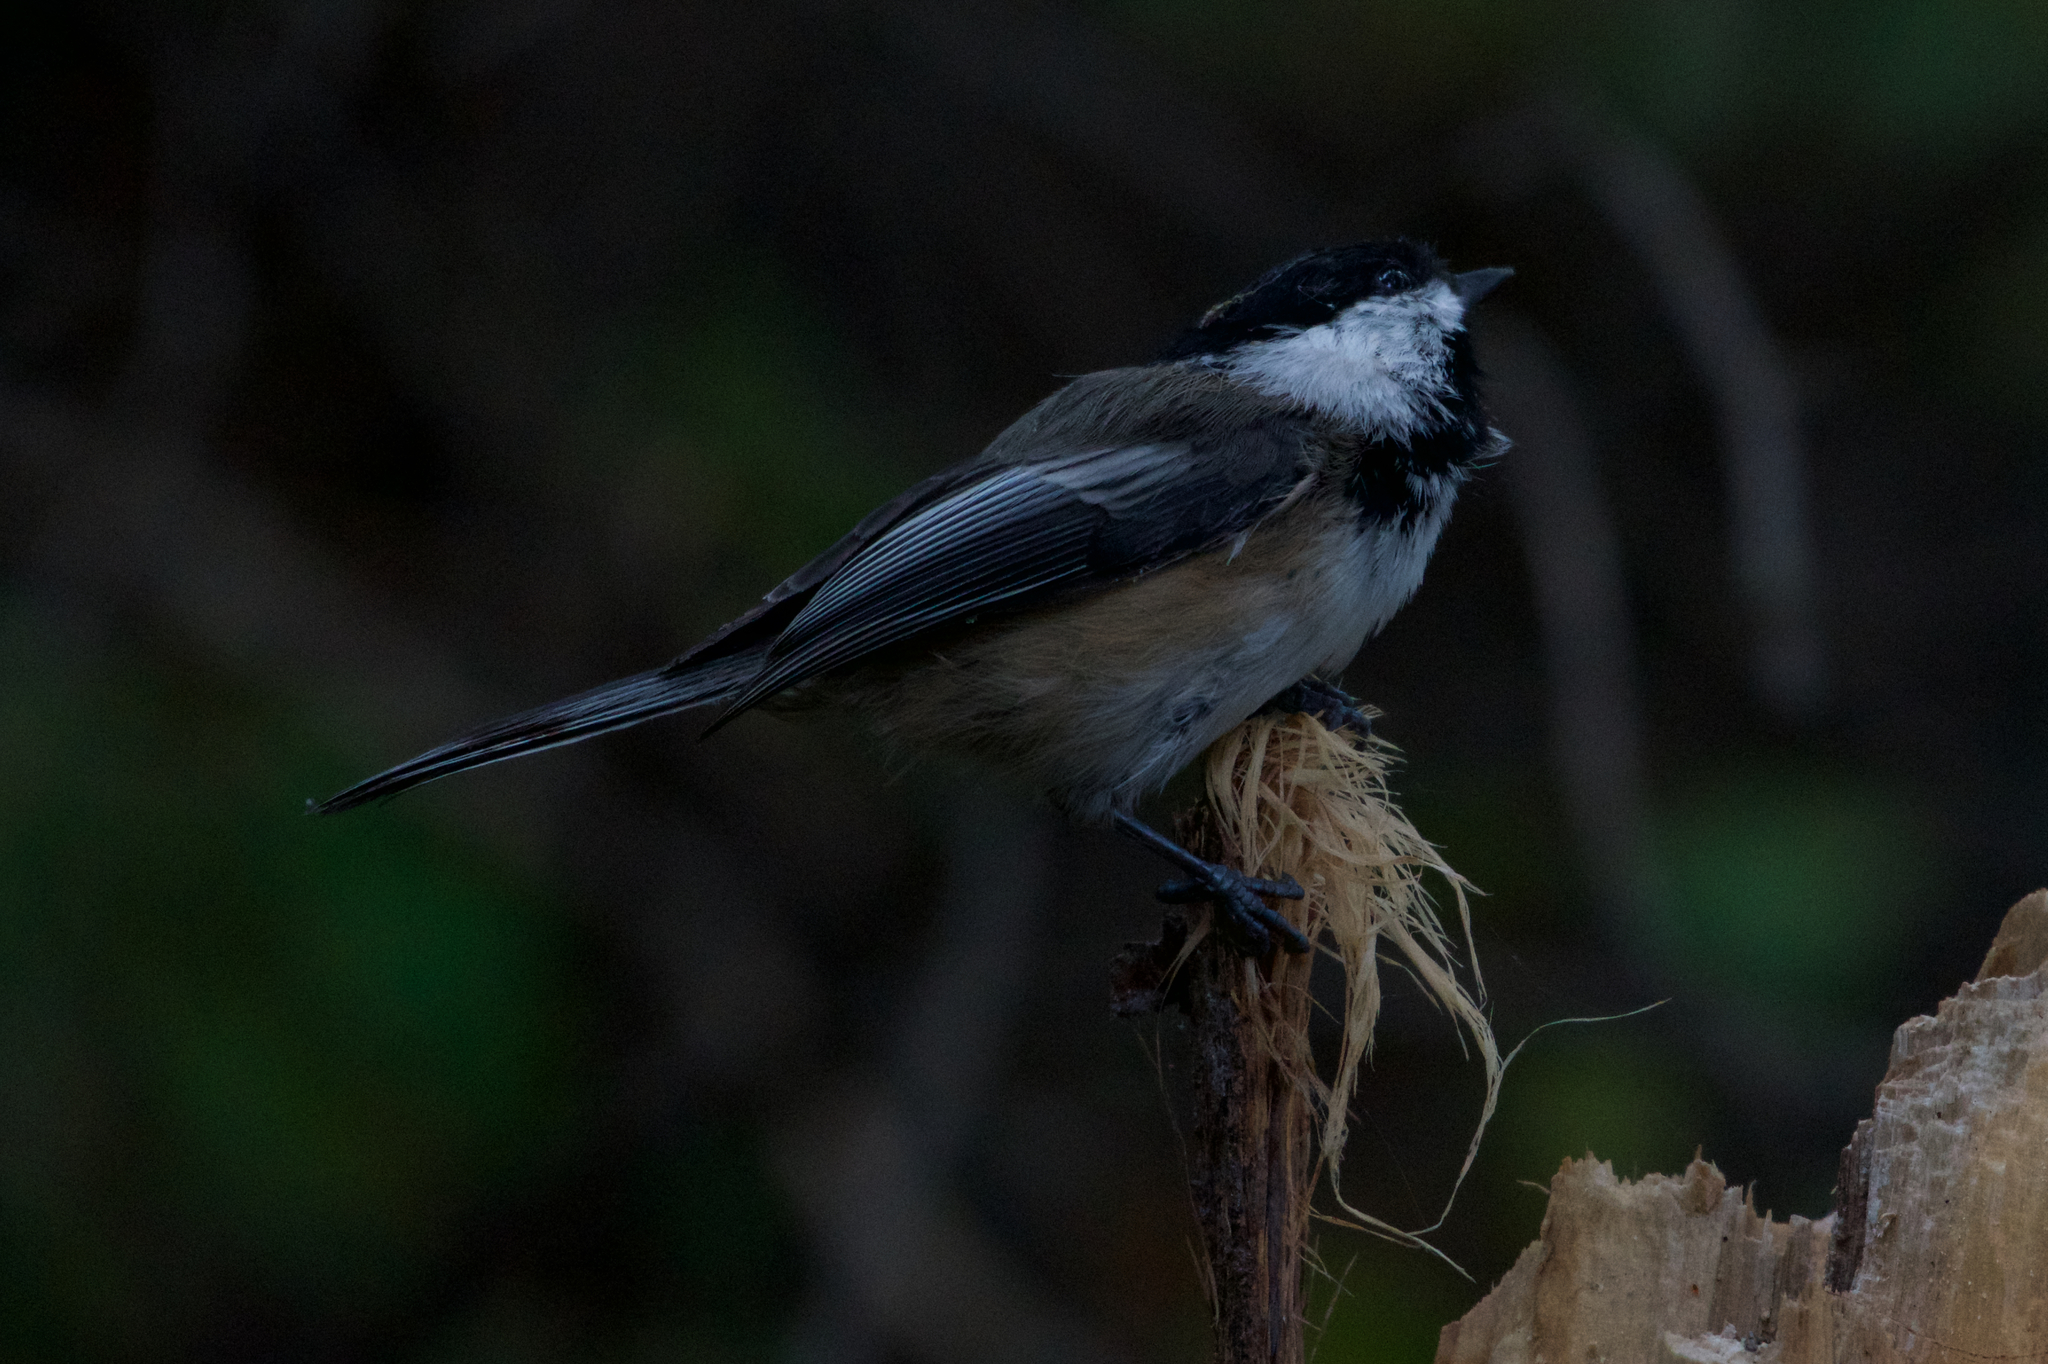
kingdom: Animalia
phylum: Chordata
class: Aves
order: Passeriformes
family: Paridae
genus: Poecile
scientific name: Poecile atricapillus
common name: Black-capped chickadee
